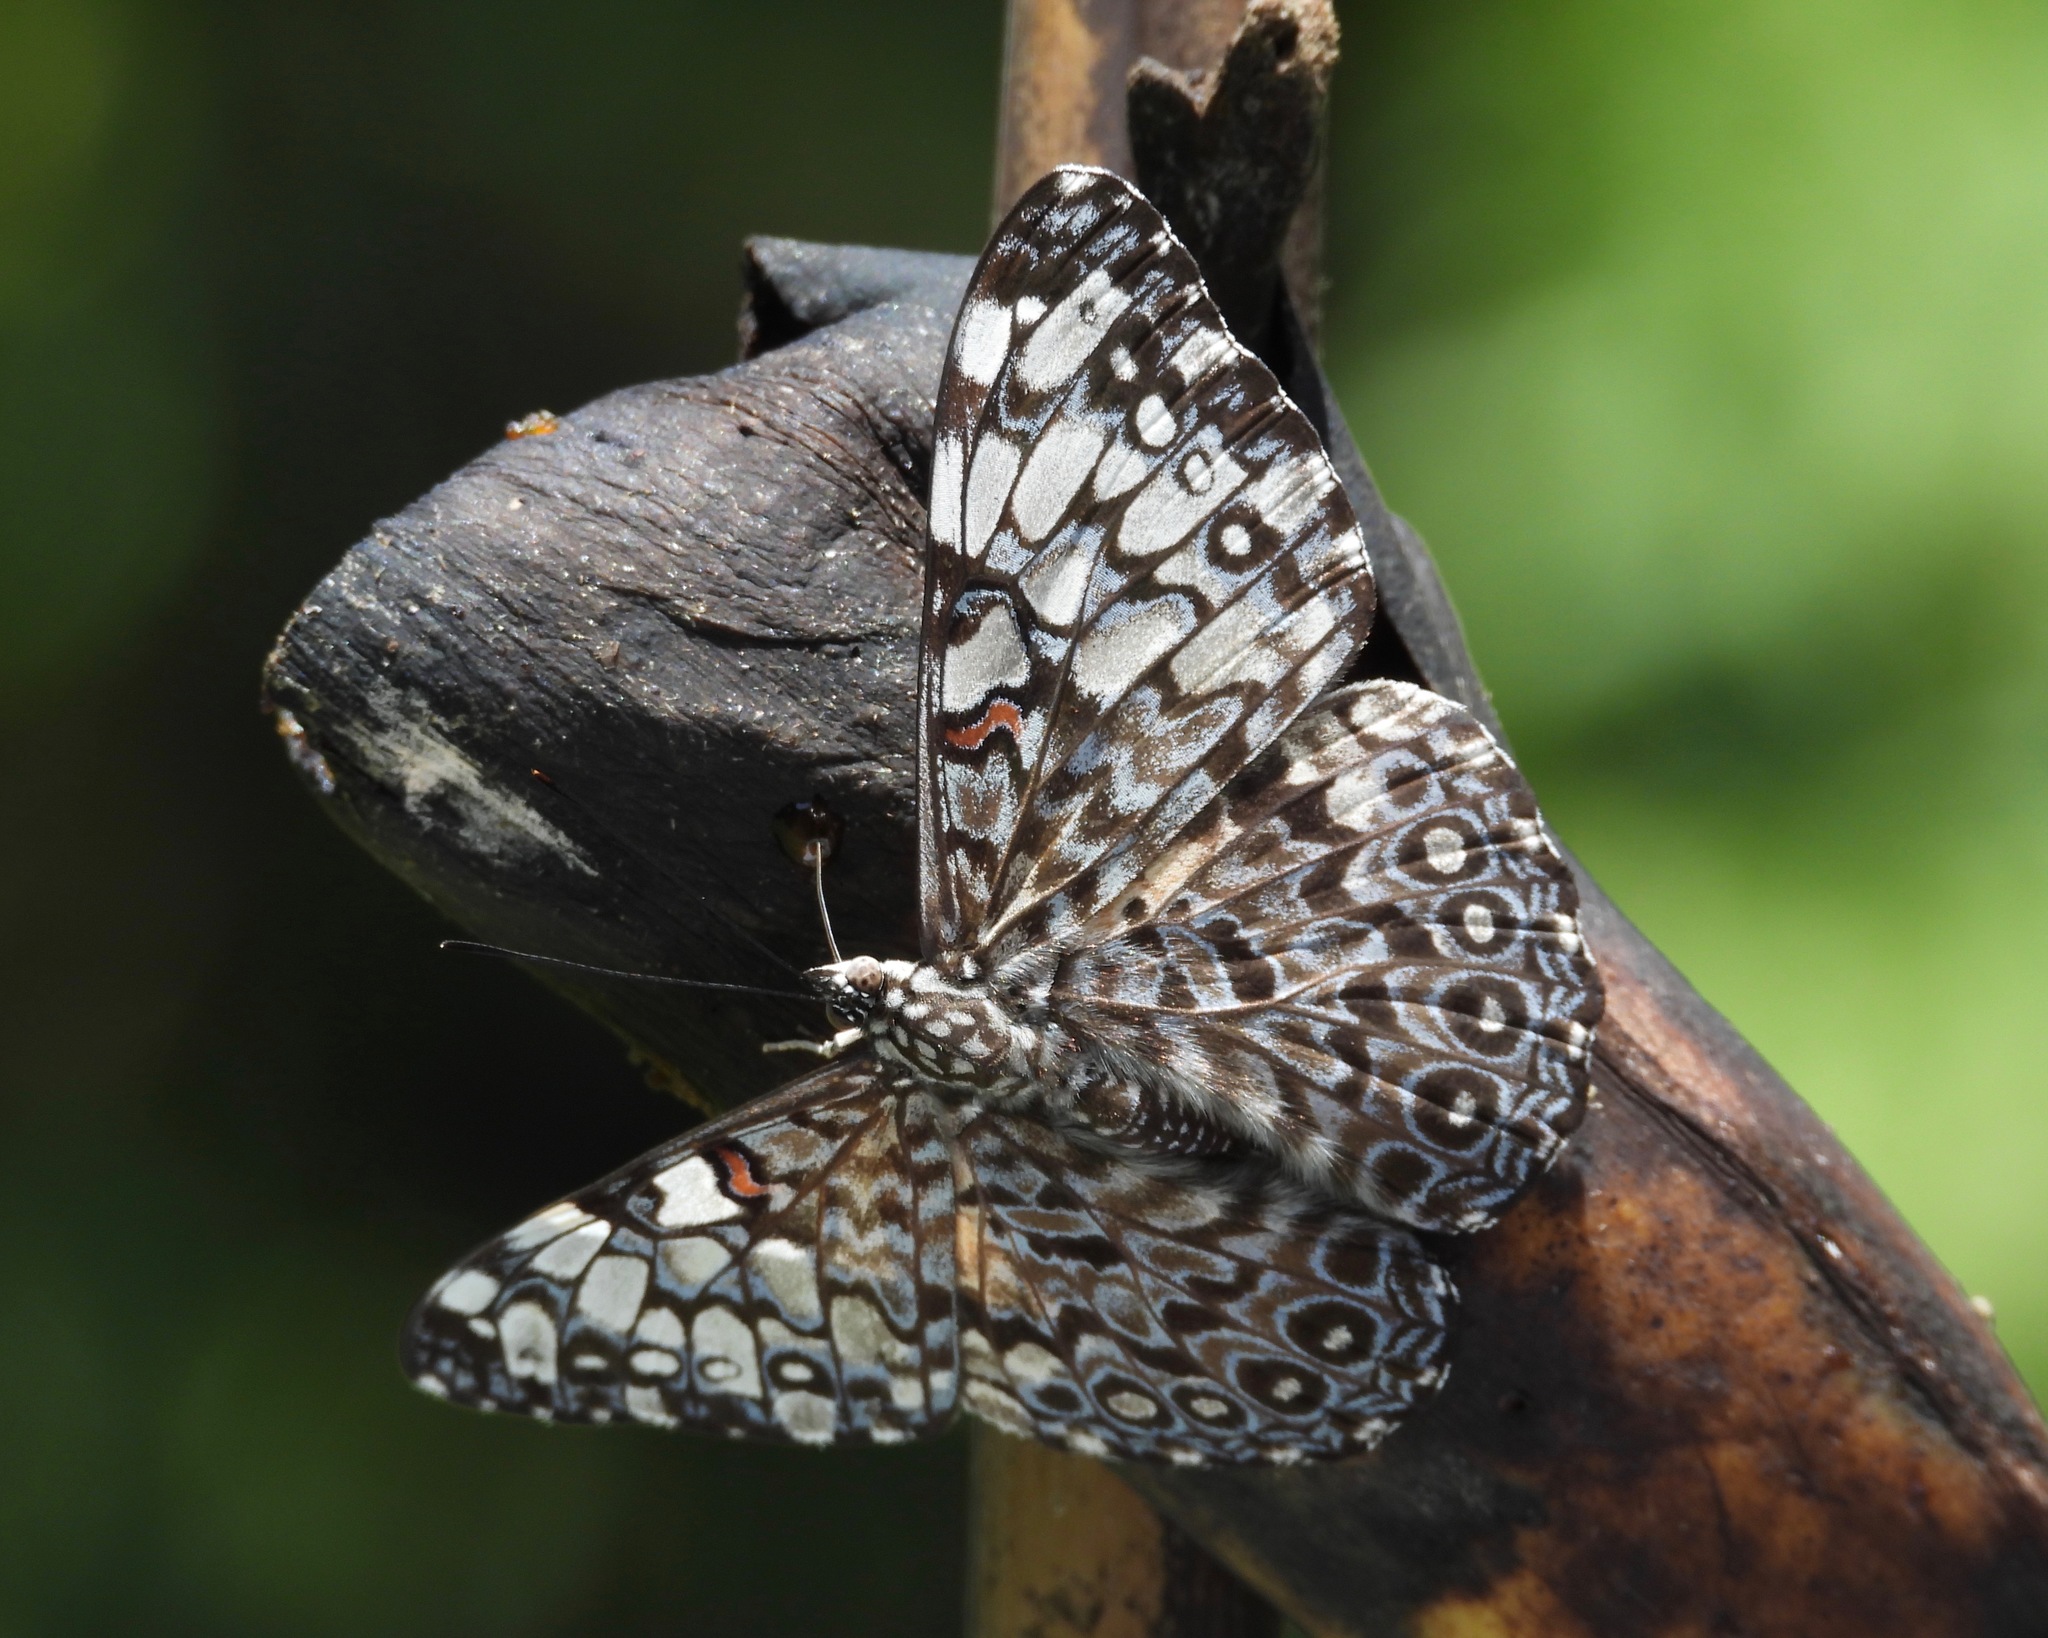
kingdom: Animalia
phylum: Arthropoda
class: Insecta
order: Lepidoptera
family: Nymphalidae
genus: Hamadryas
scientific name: Hamadryas feronia
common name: Variable cracker
